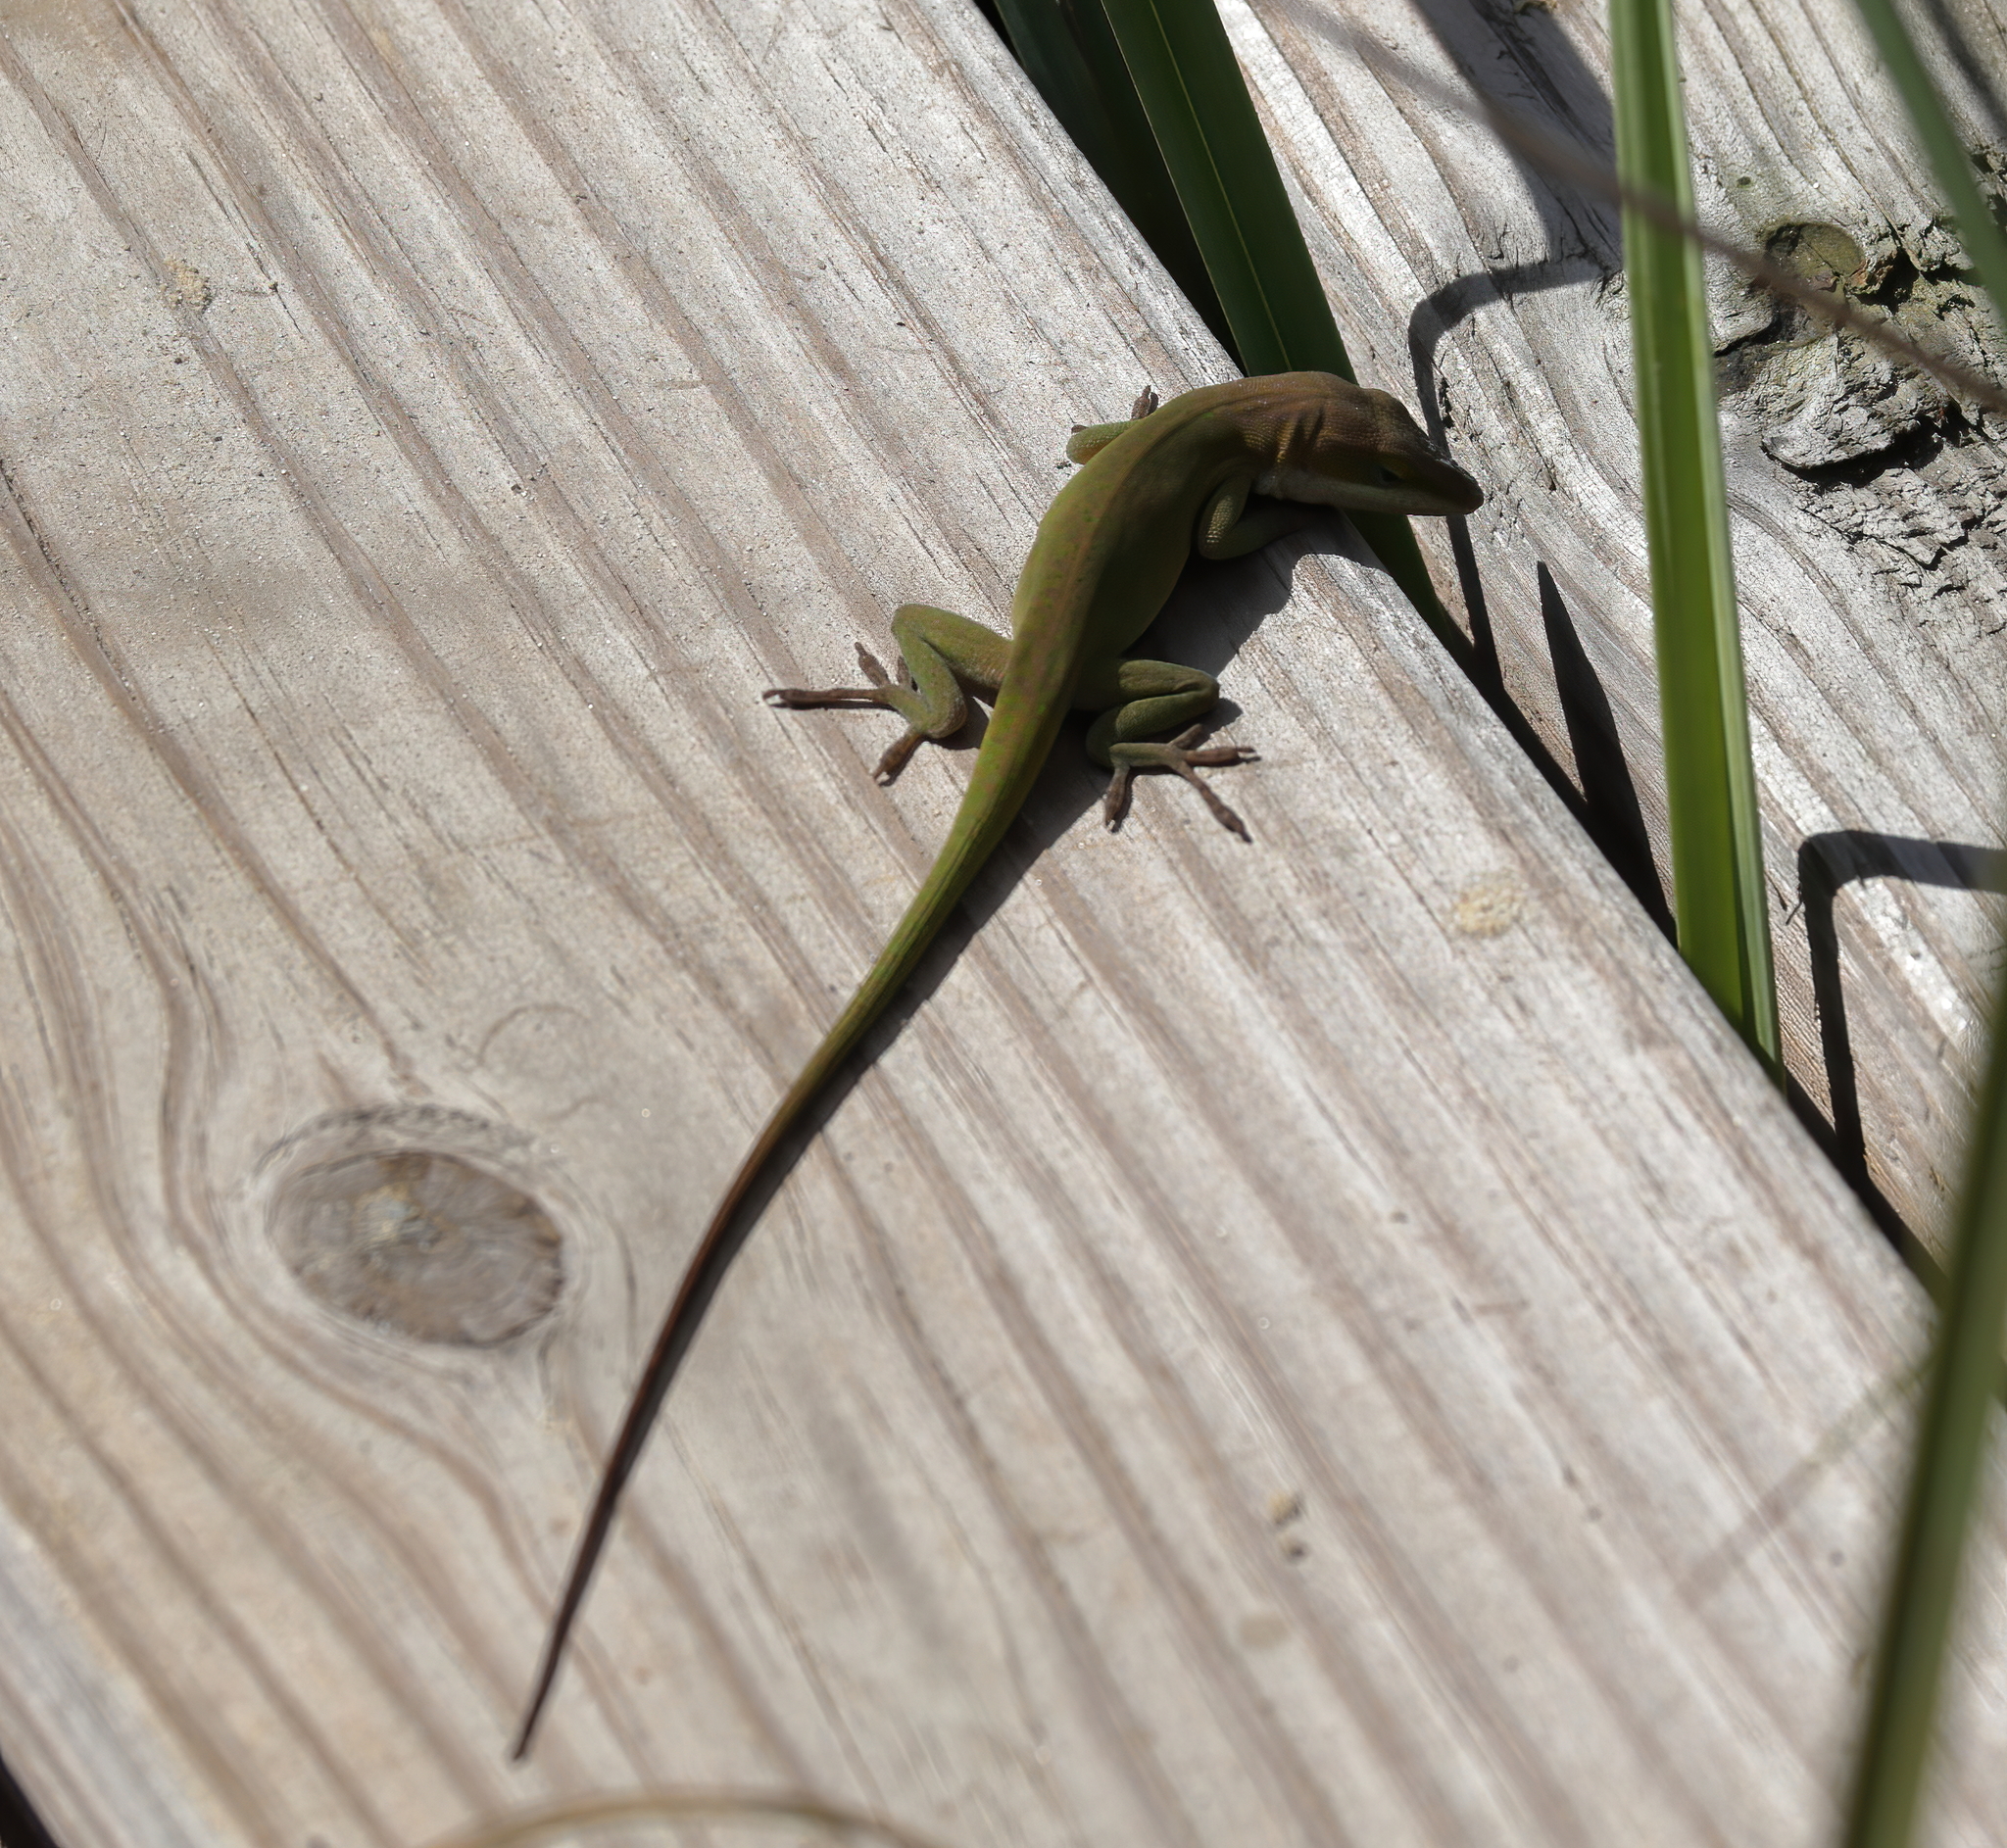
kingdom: Animalia
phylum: Chordata
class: Squamata
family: Dactyloidae
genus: Anolis
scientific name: Anolis carolinensis
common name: Green anole
